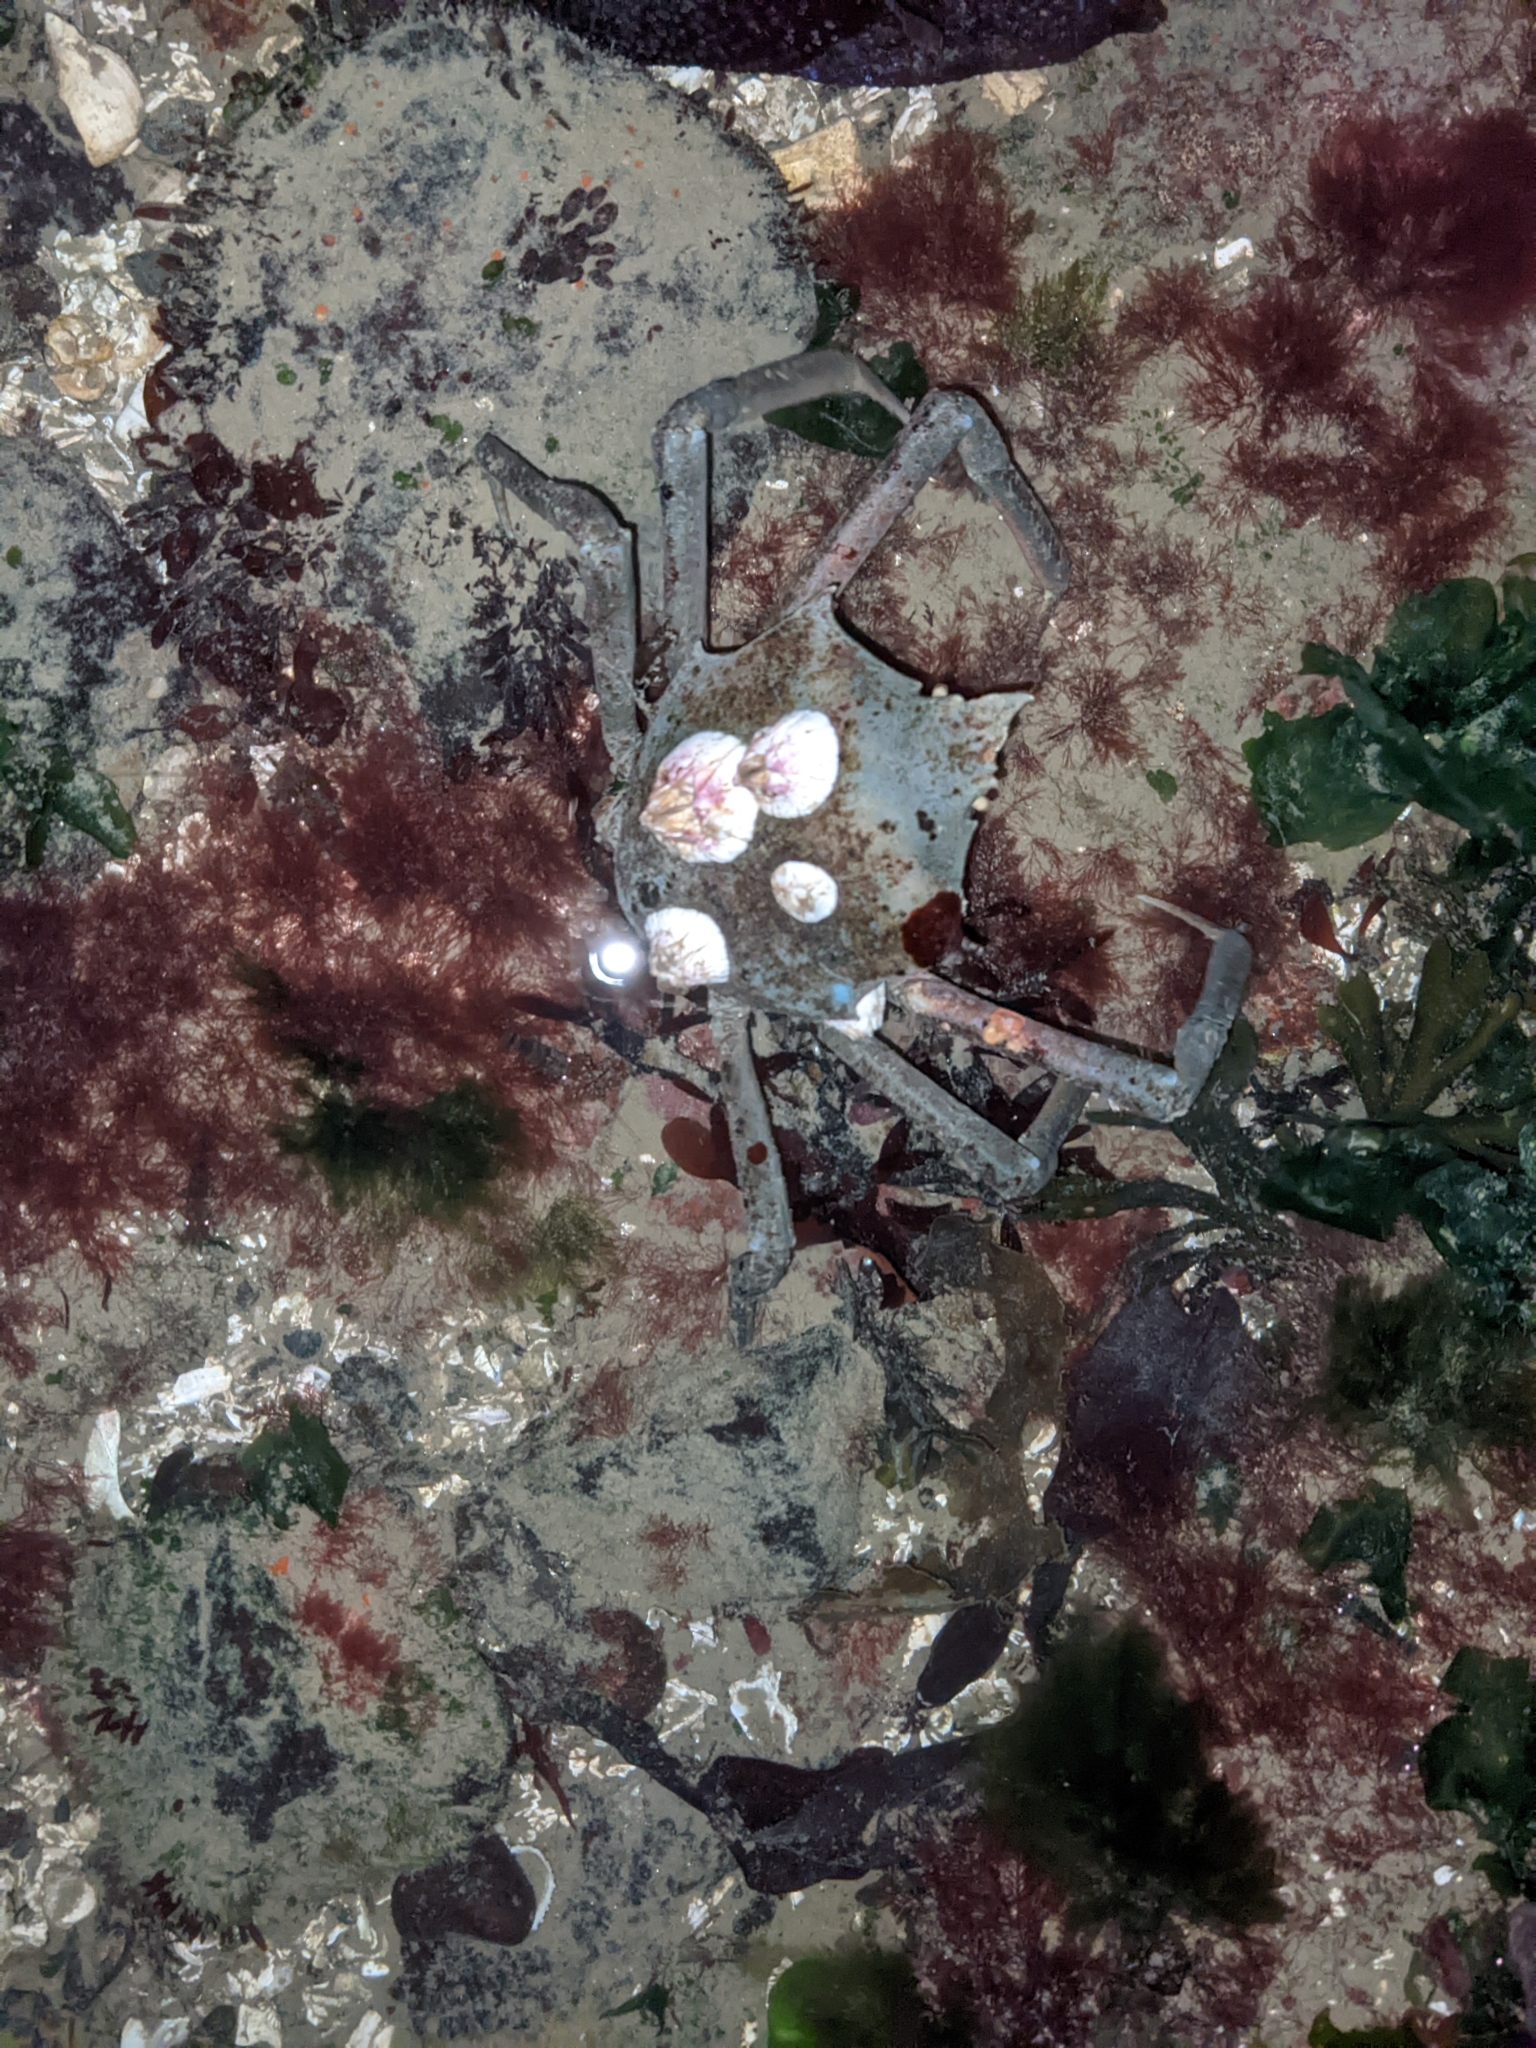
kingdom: Animalia
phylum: Arthropoda
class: Malacostraca
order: Decapoda
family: Epialtidae
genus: Pugettia
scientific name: Pugettia producta
